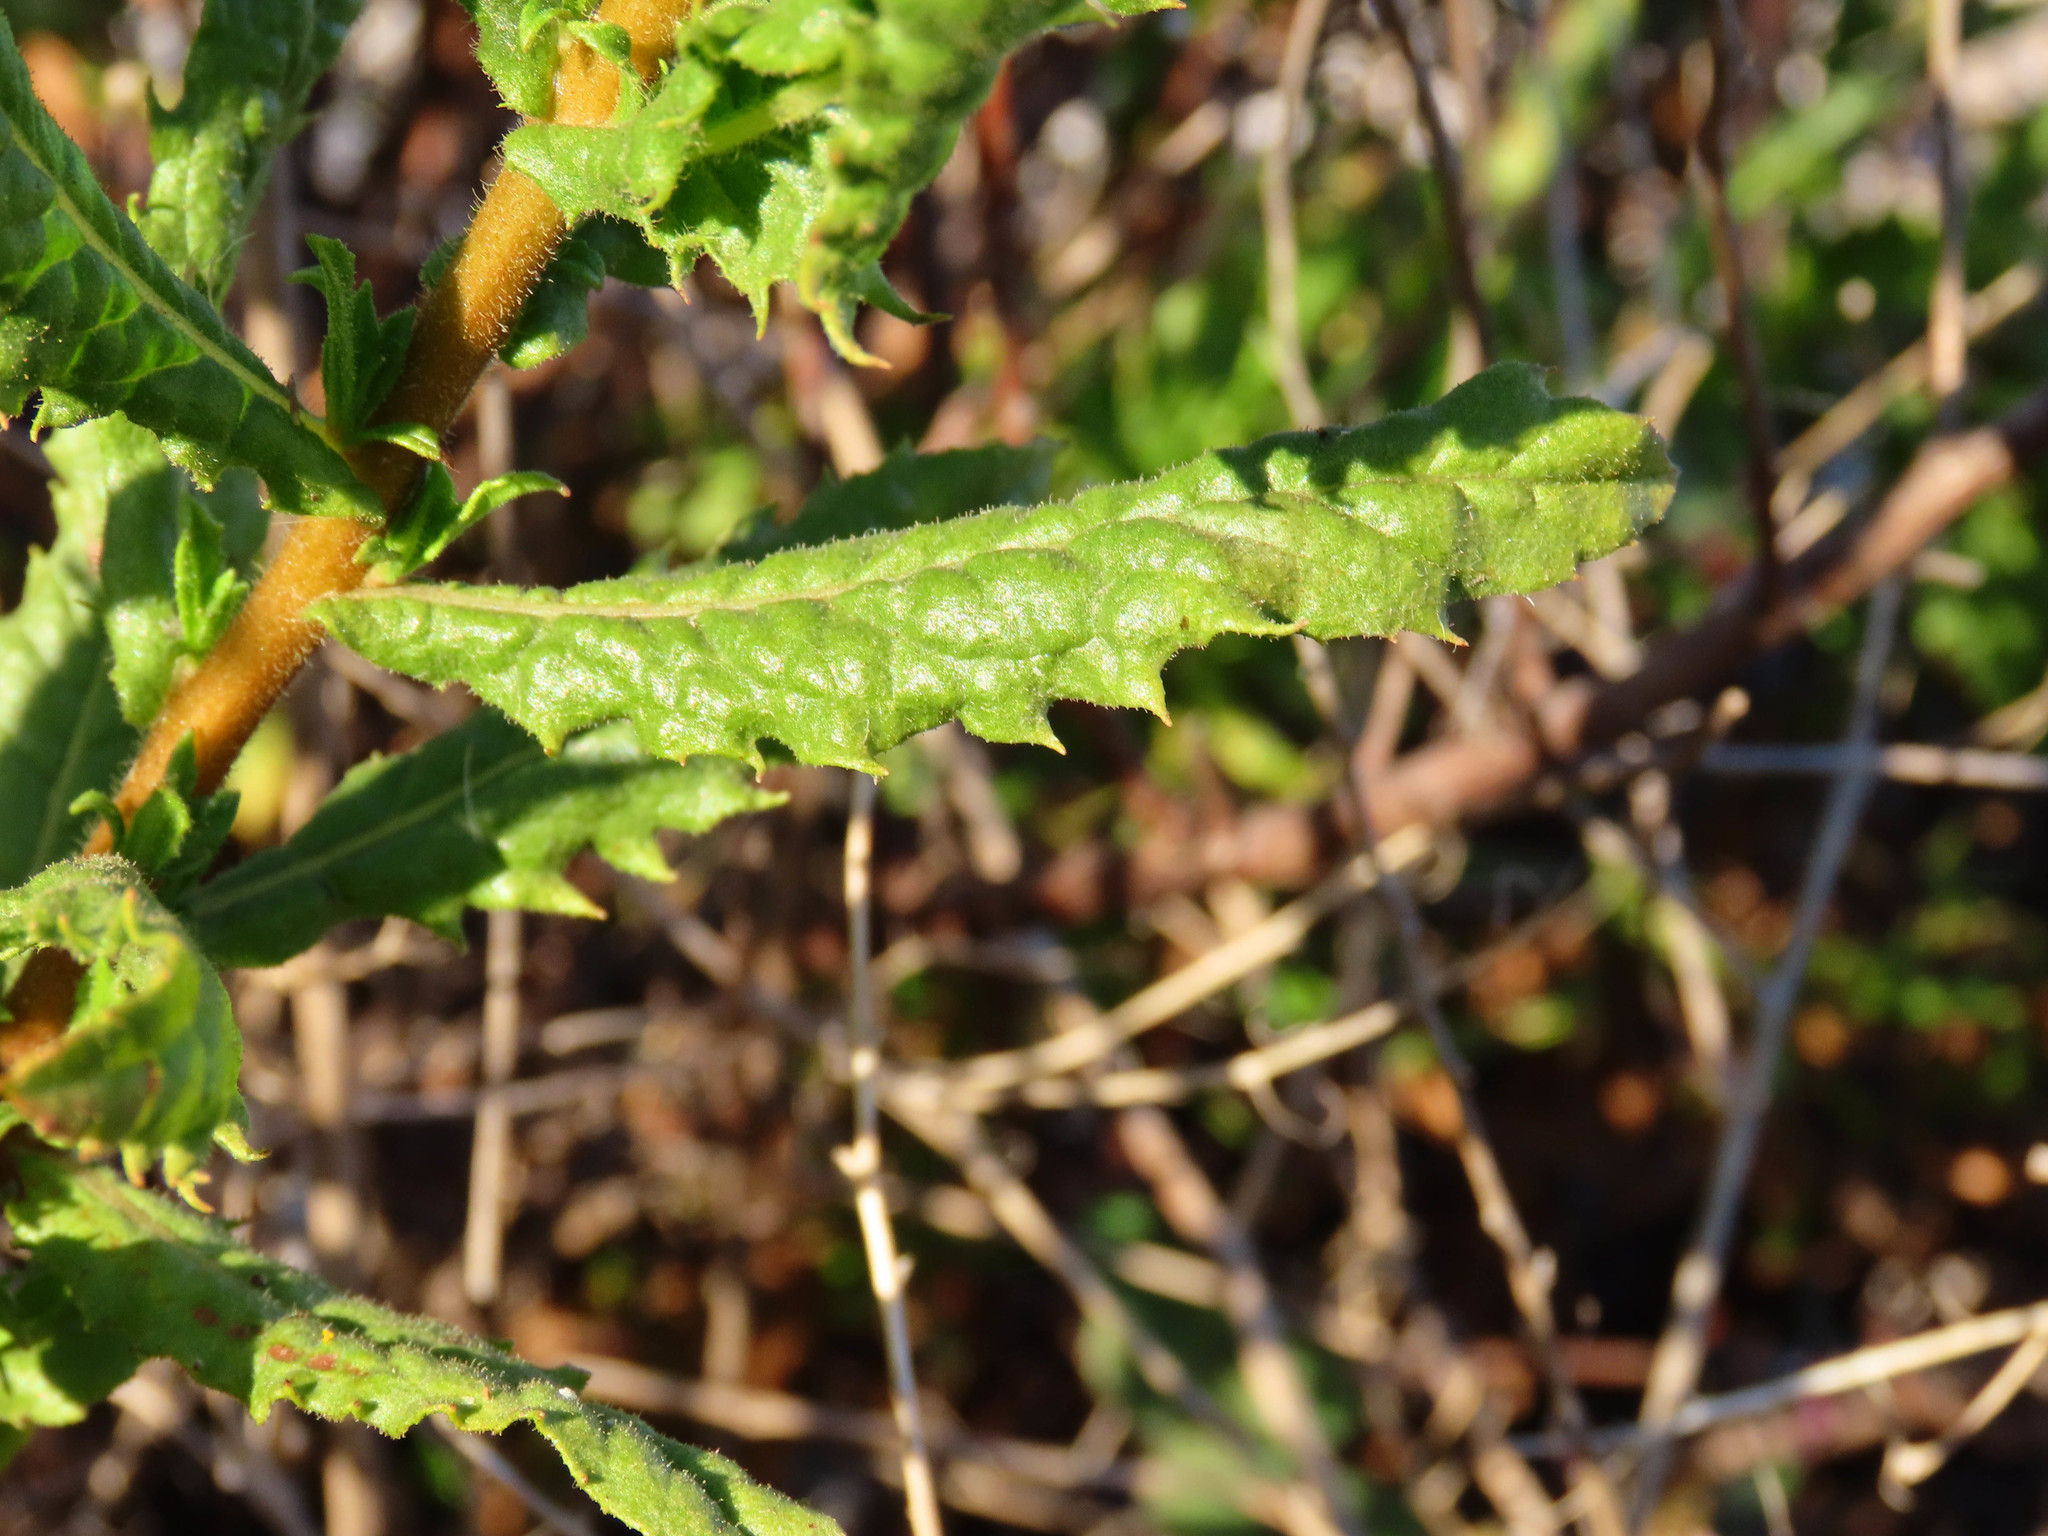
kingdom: Plantae
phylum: Tracheophyta
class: Magnoliopsida
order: Asterales
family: Asteraceae
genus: Dittrichia
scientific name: Dittrichia viscosa
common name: Woody fleabane
